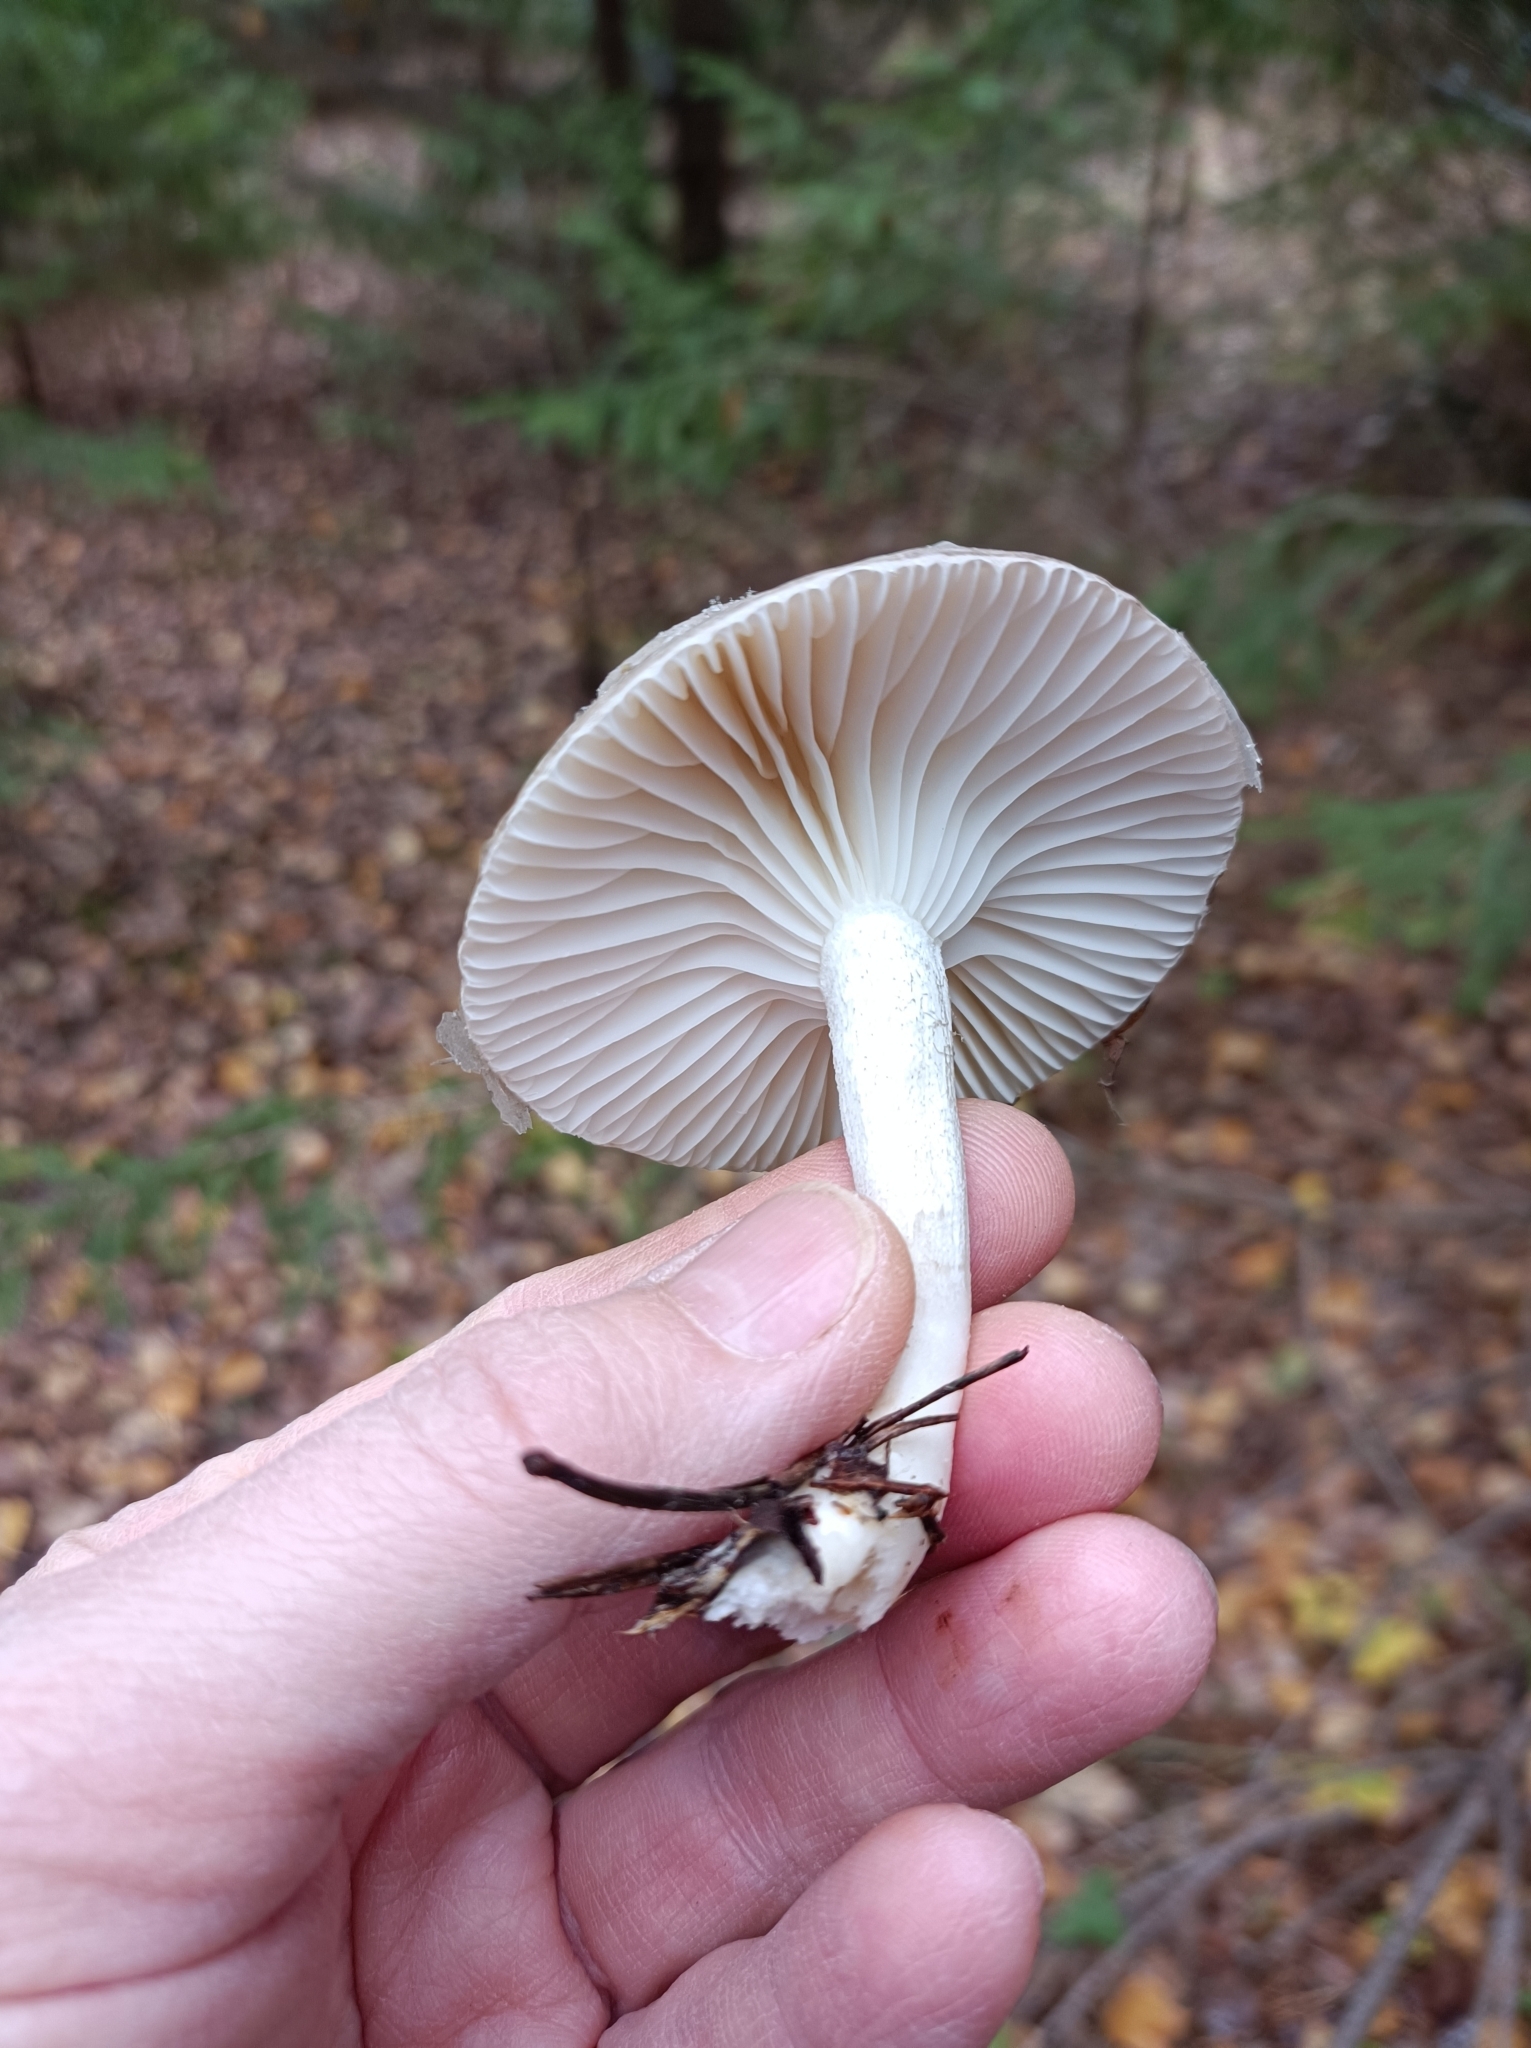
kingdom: Fungi
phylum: Basidiomycota
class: Agaricomycetes
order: Agaricales
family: Hygrophoraceae
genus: Hygrophorus
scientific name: Hygrophorus agathosmus
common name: Almond woodwax
